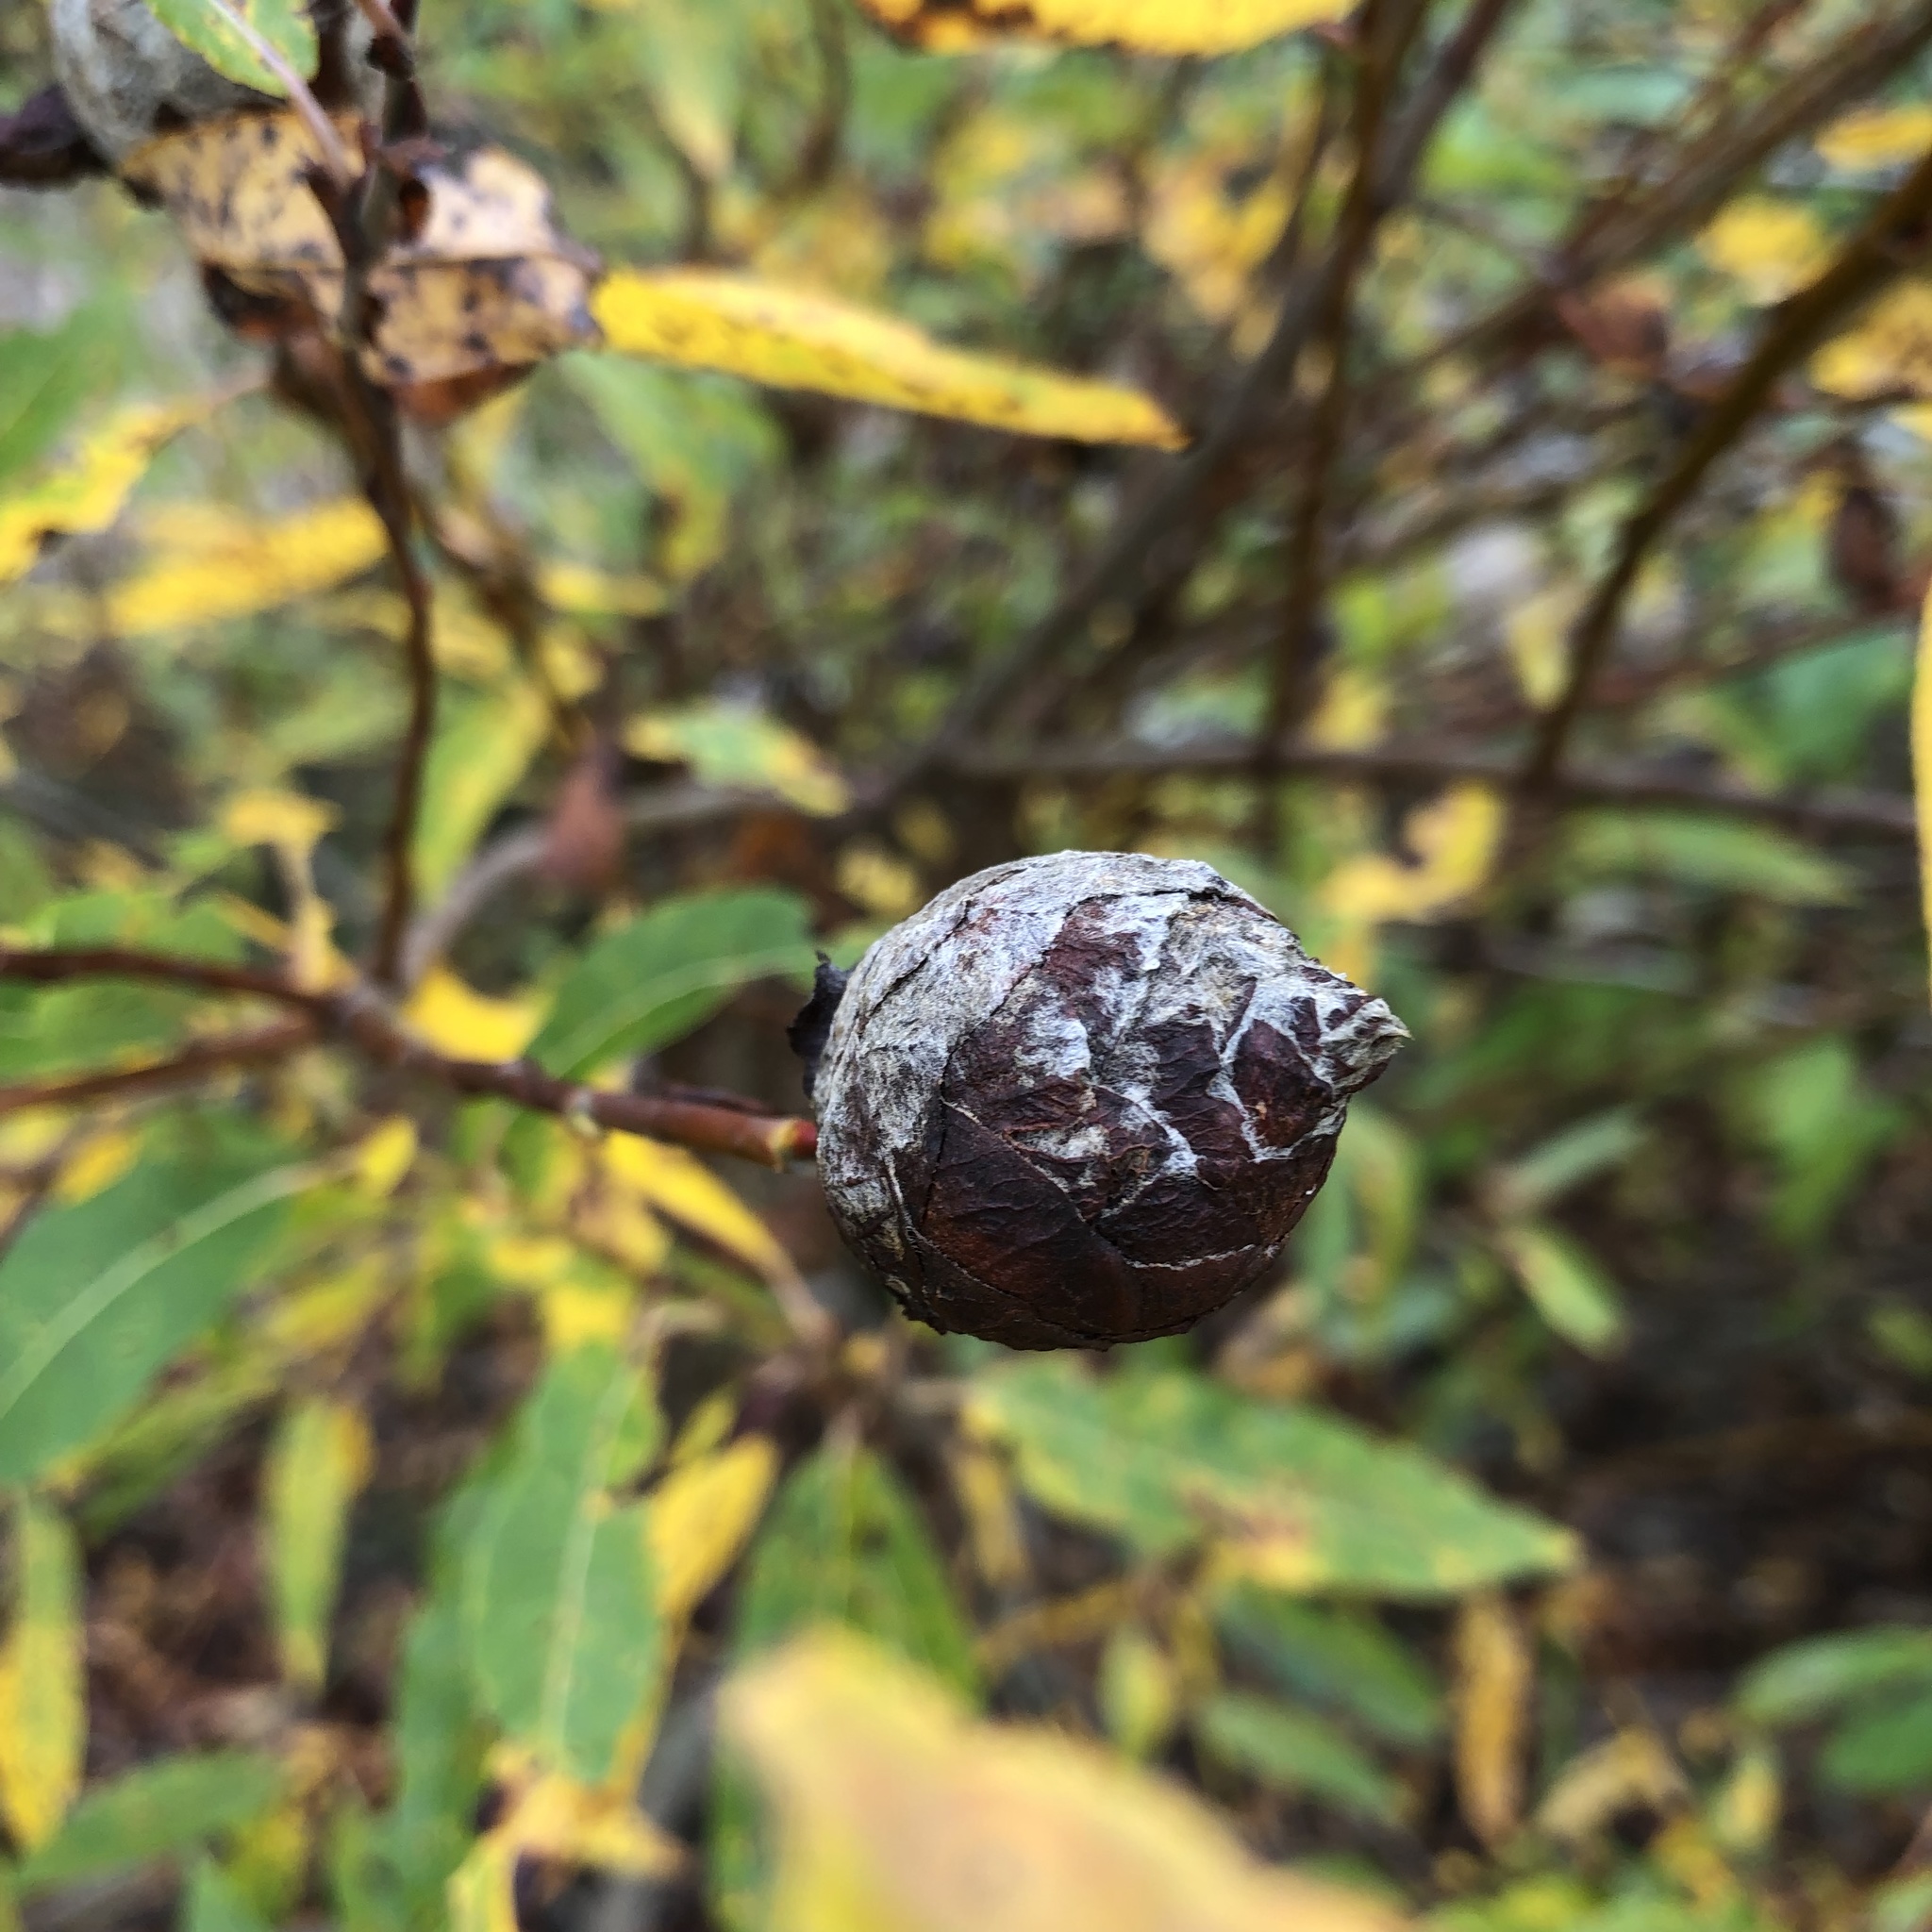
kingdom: Animalia
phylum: Arthropoda
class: Insecta
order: Diptera
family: Cecidomyiidae
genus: Rabdophaga
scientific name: Rabdophaga strobiloides
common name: Willow pinecone gall midge
